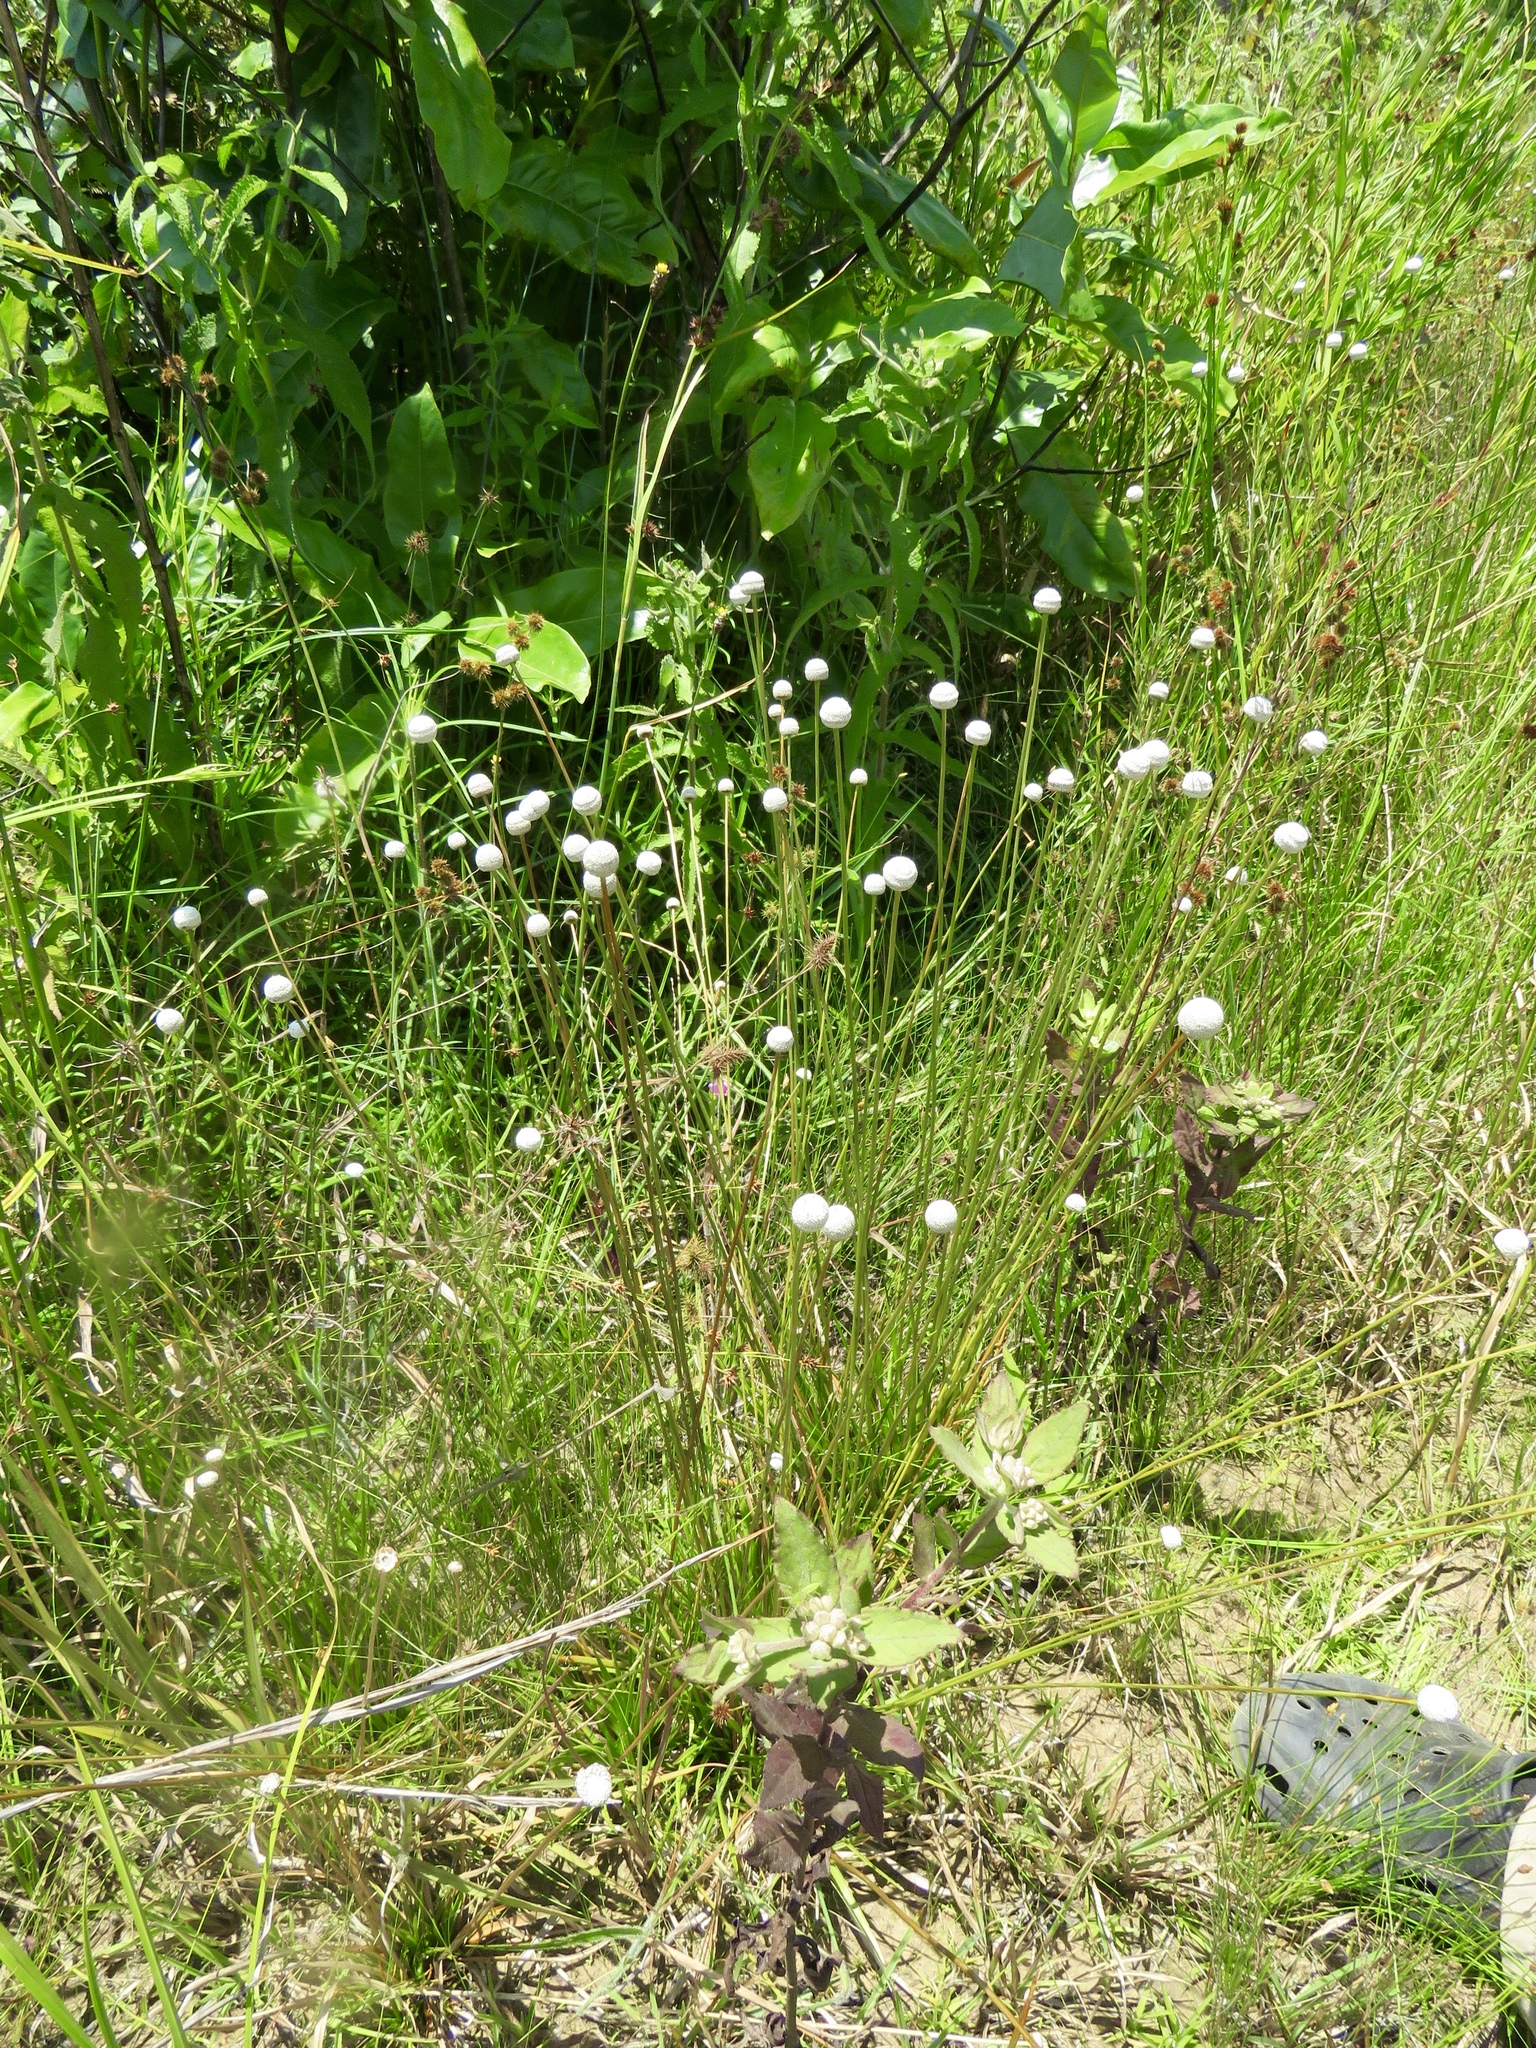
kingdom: Plantae
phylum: Tracheophyta
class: Liliopsida
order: Poales
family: Eriocaulaceae
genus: Eriocaulon
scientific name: Eriocaulon decangulare
